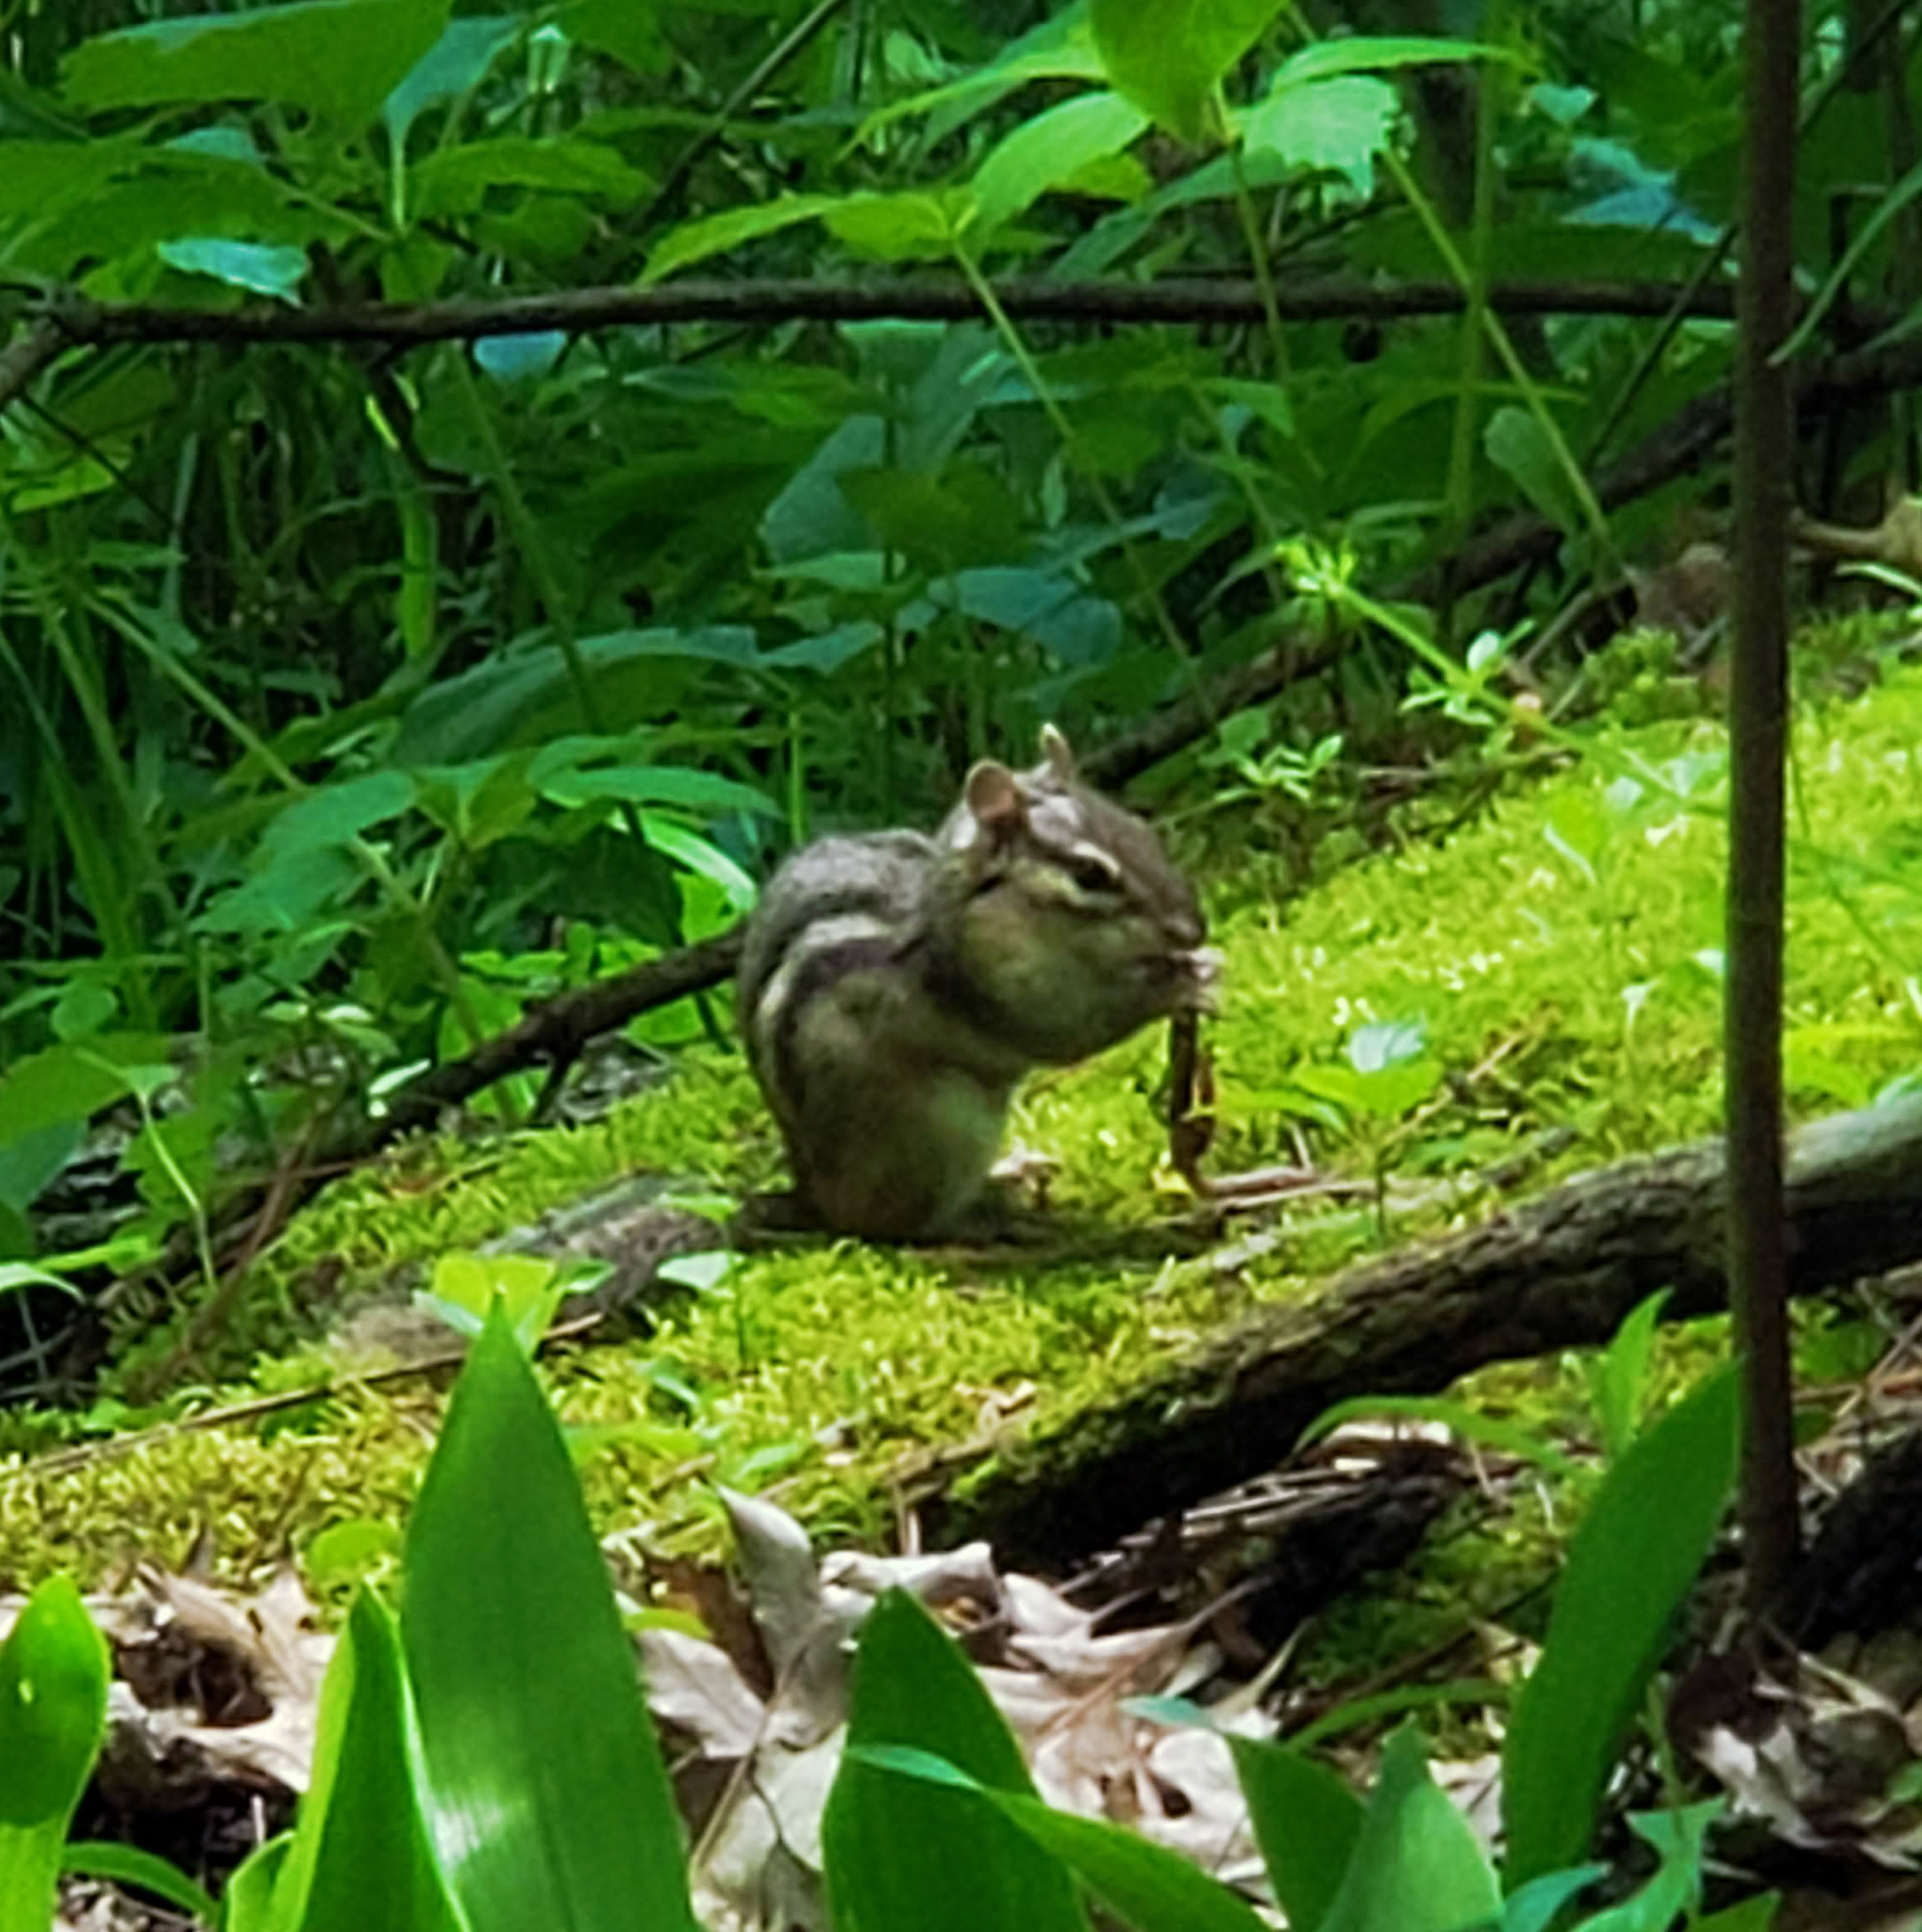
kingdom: Animalia
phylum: Chordata
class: Mammalia
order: Rodentia
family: Sciuridae
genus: Tamias
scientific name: Tamias striatus
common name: Eastern chipmunk
